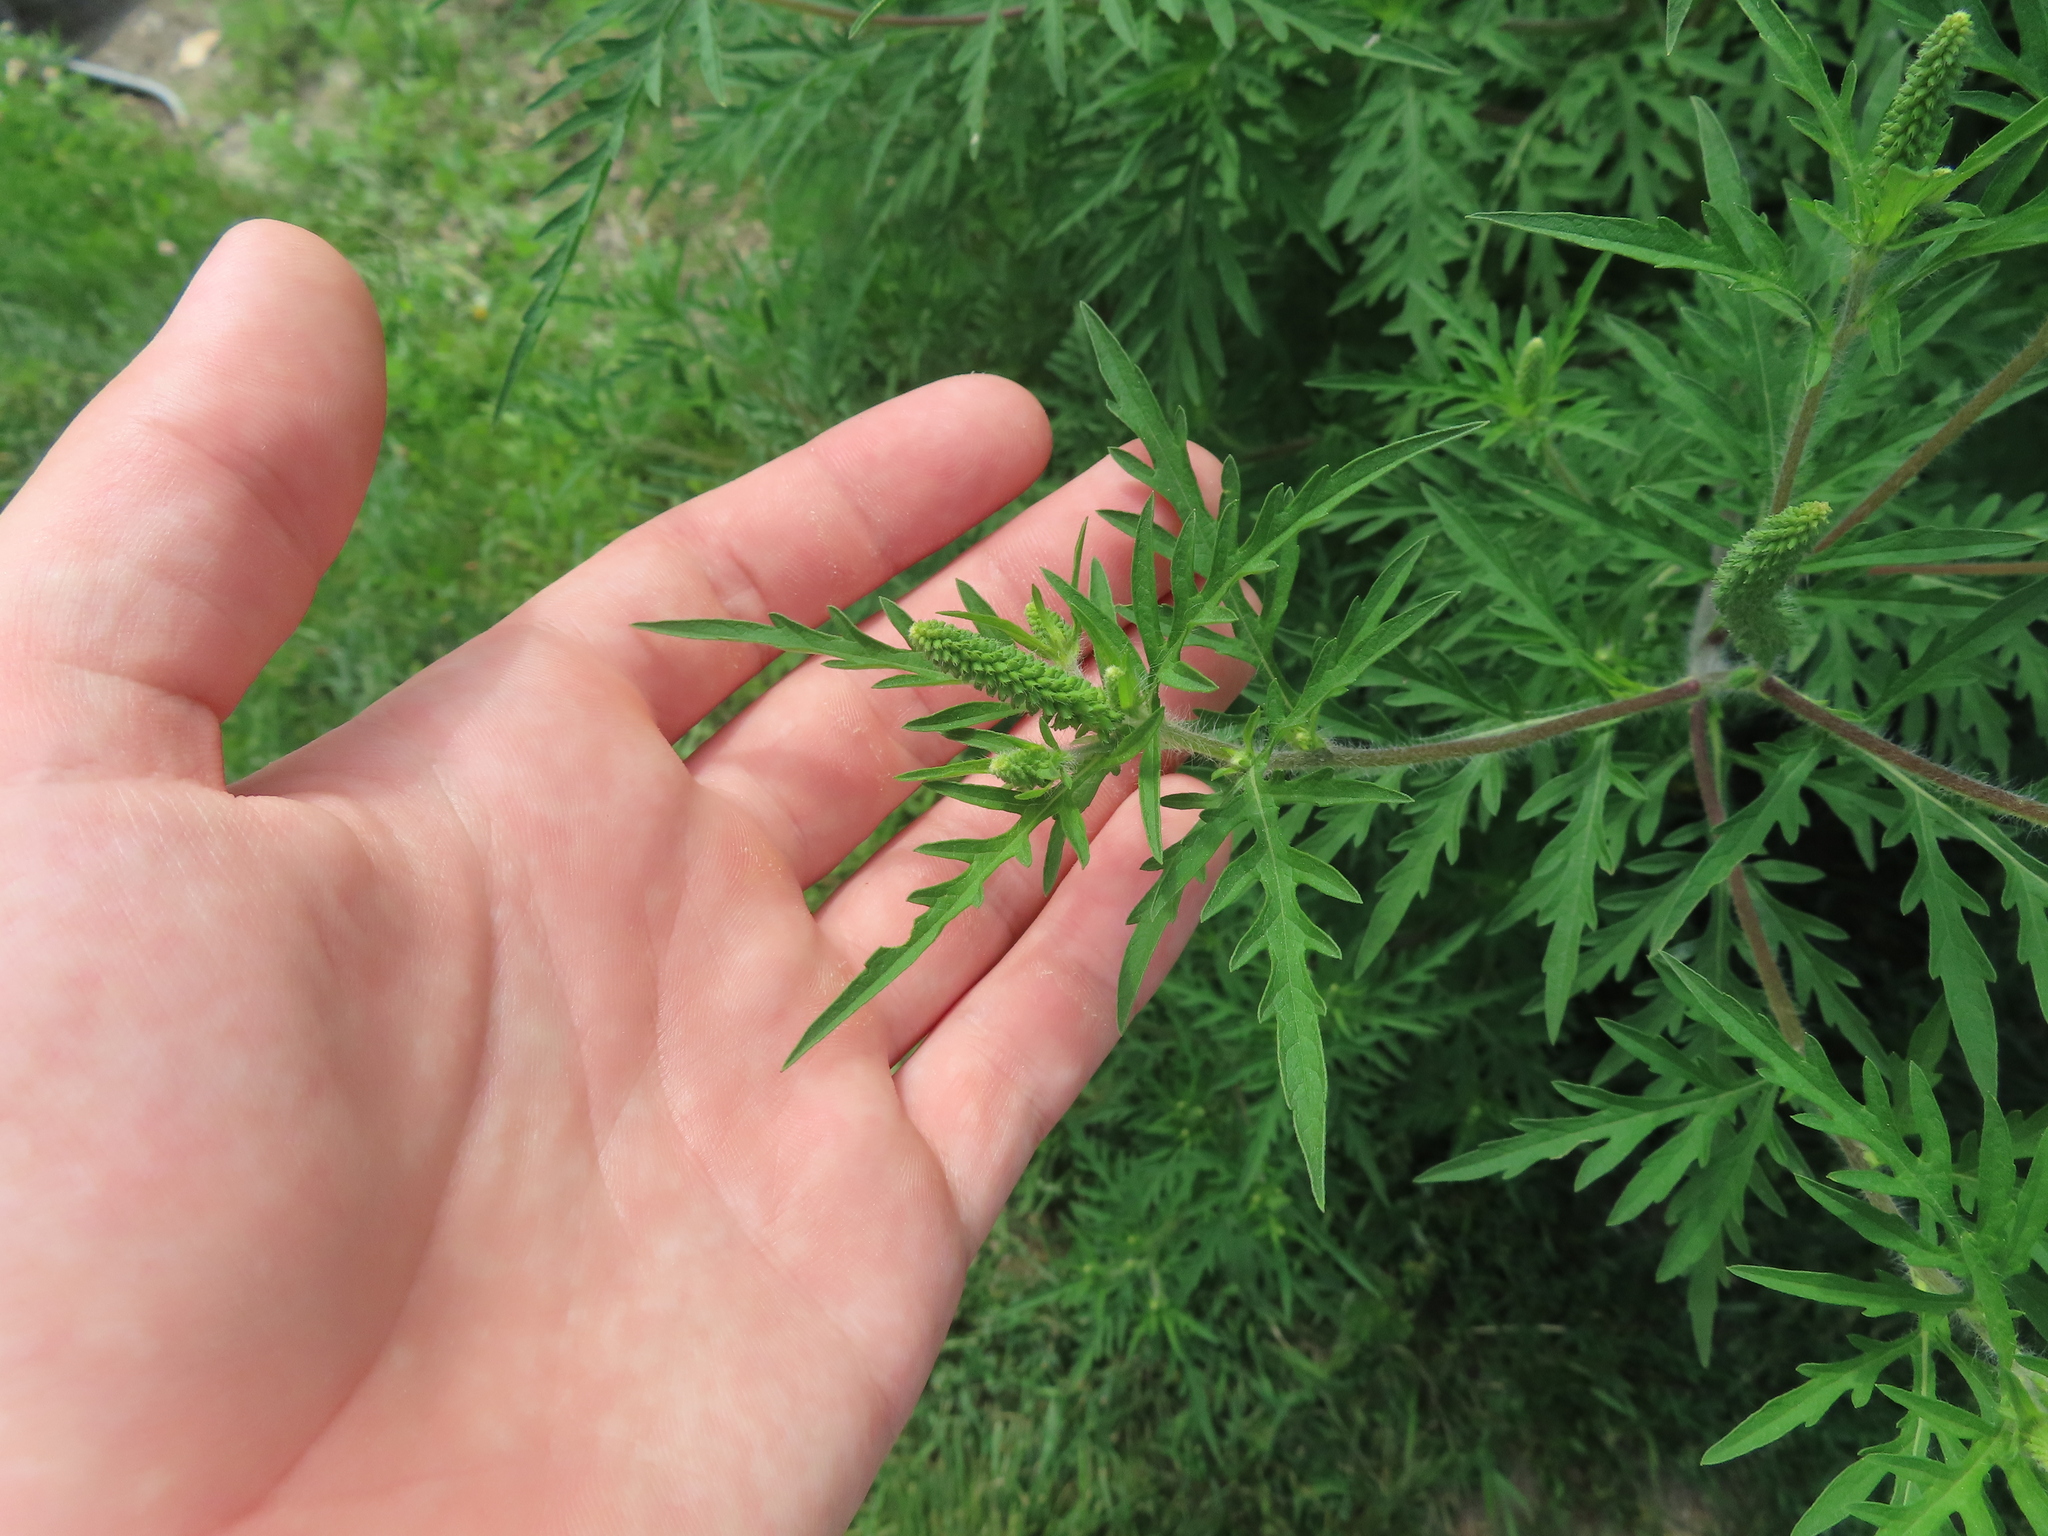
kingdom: Plantae
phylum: Tracheophyta
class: Magnoliopsida
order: Asterales
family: Asteraceae
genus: Ambrosia
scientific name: Ambrosia artemisiifolia
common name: Annual ragweed
